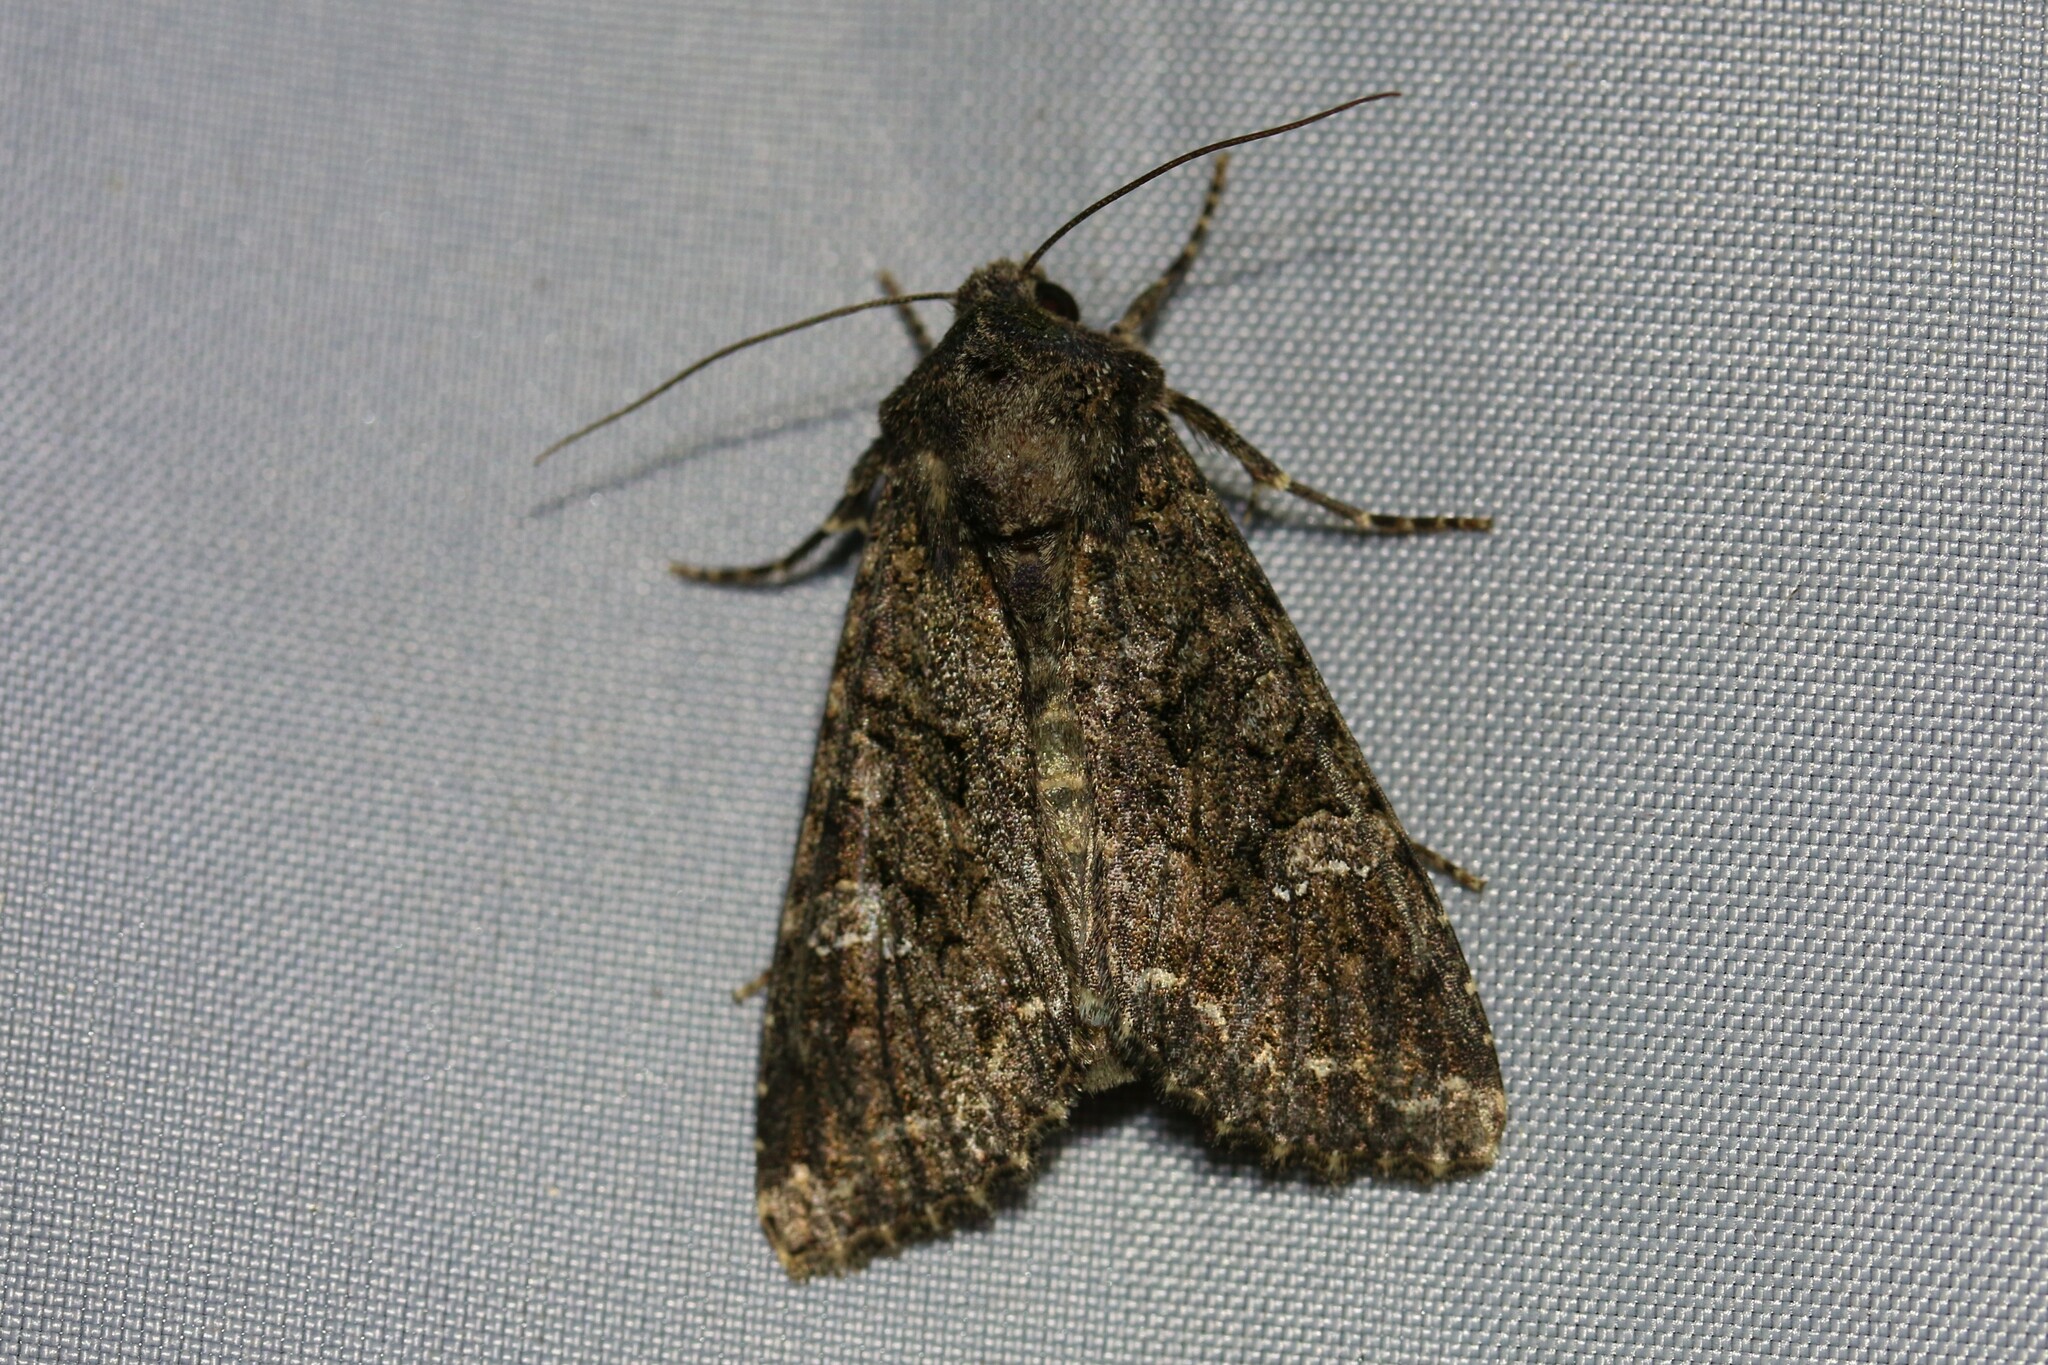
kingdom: Animalia
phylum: Arthropoda
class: Insecta
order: Lepidoptera
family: Noctuidae
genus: Mamestra
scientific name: Mamestra brassicae
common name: Cabbage moth
